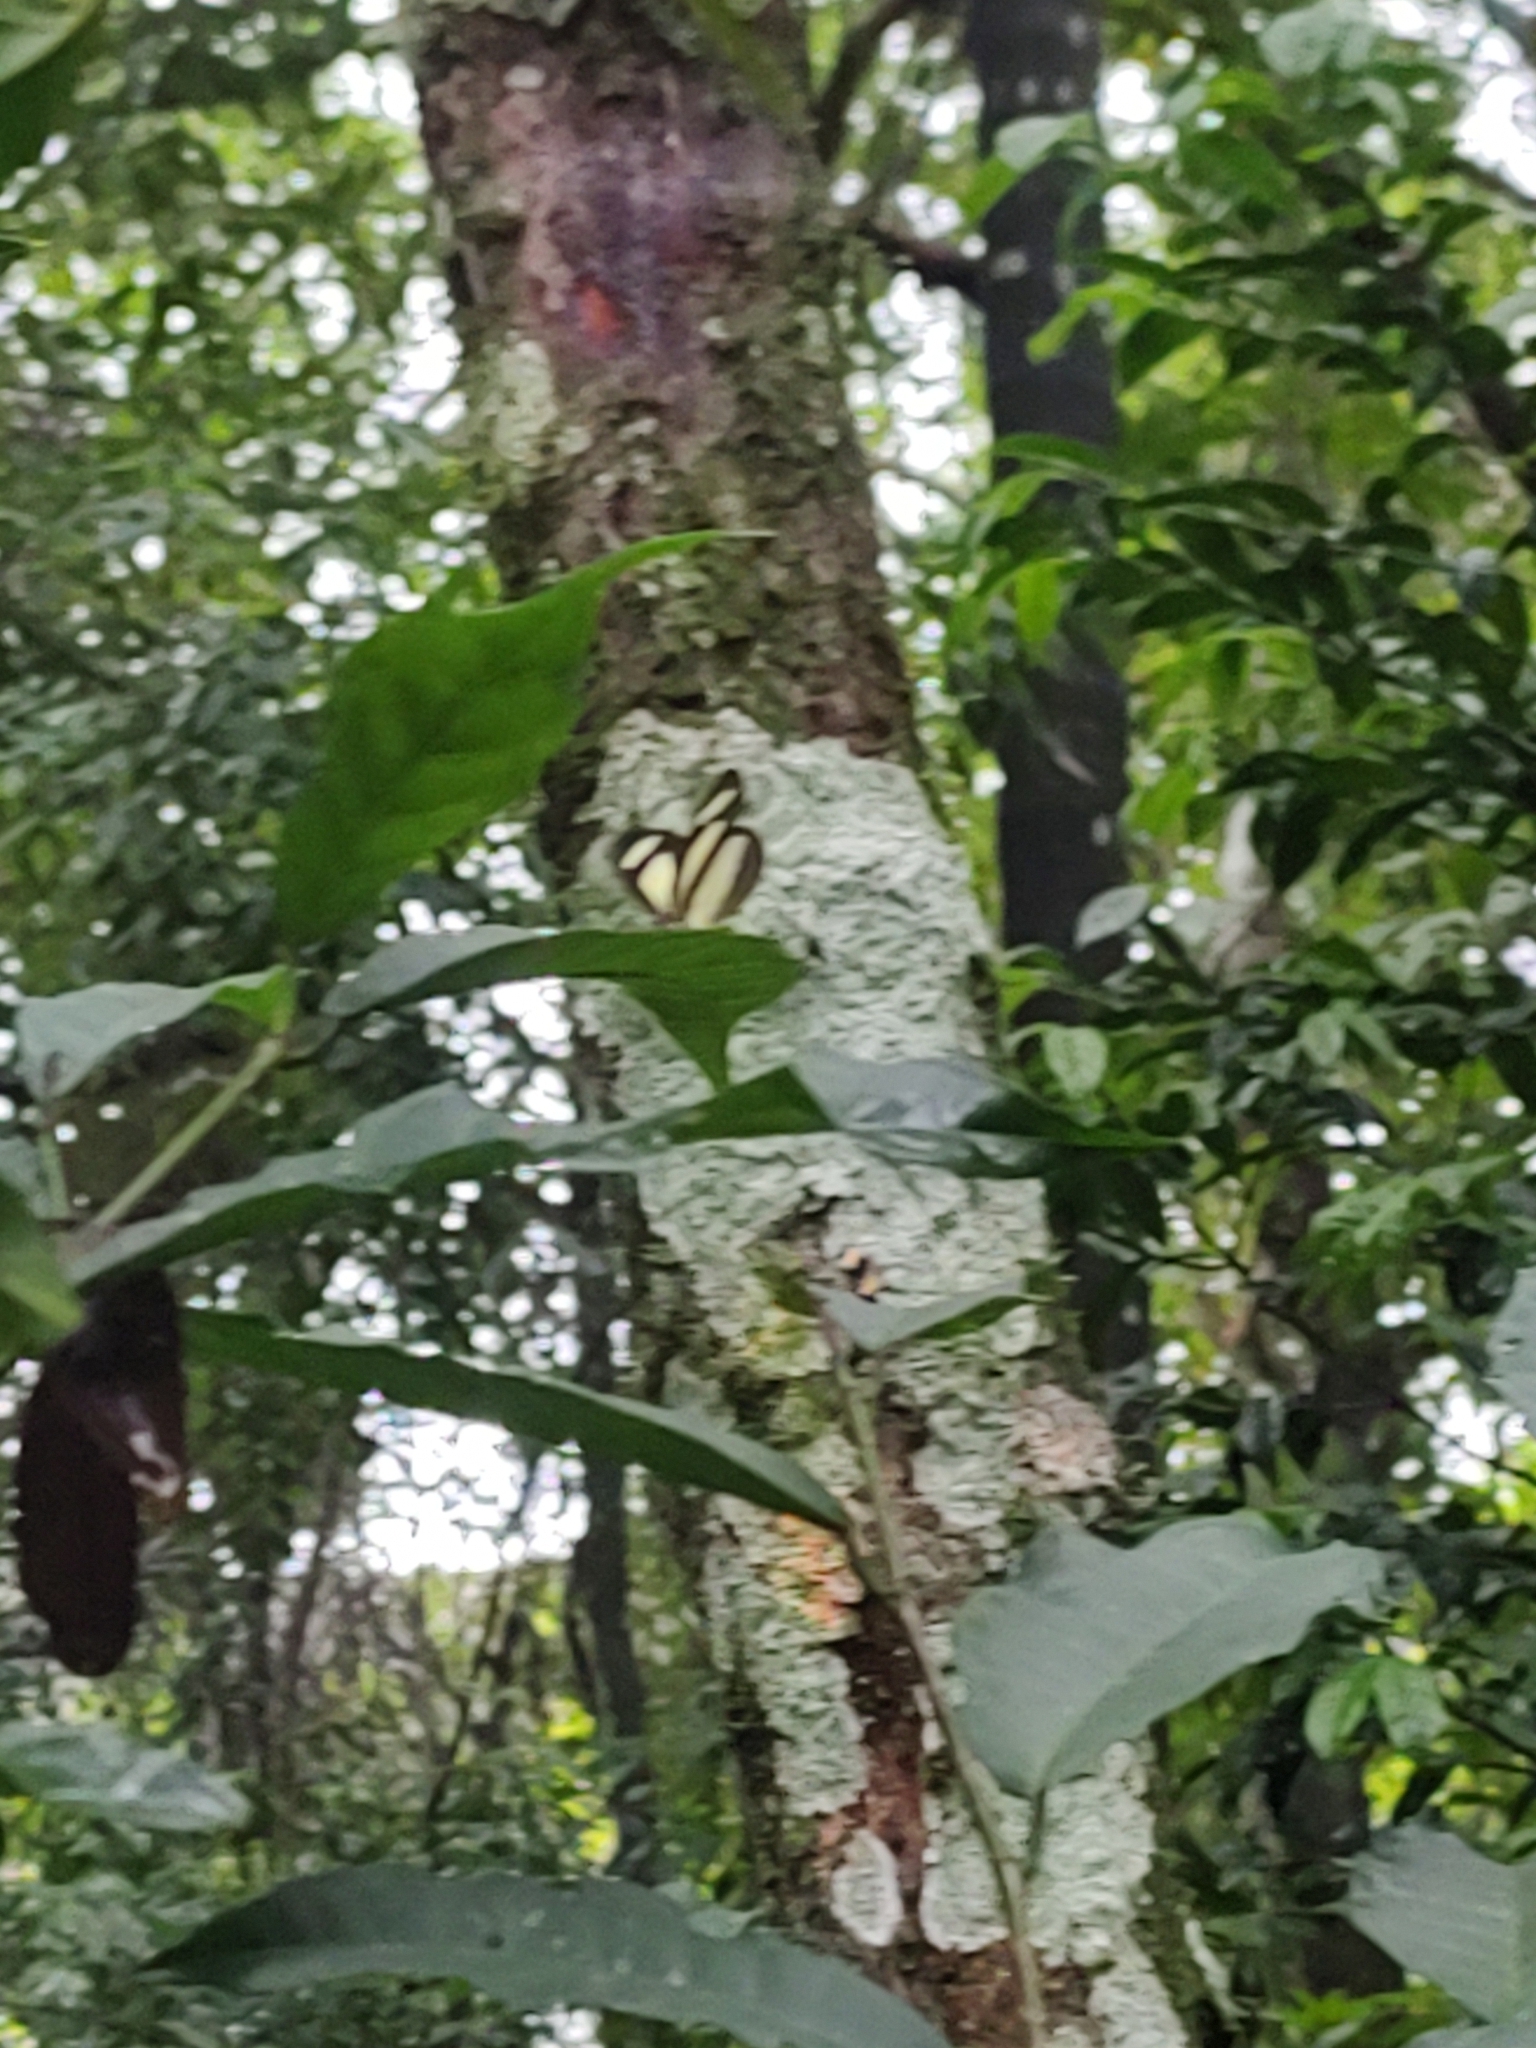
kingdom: Animalia
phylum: Arthropoda
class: Insecta
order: Lepidoptera
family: Nymphalidae
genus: Aeria
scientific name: Aeria olena
